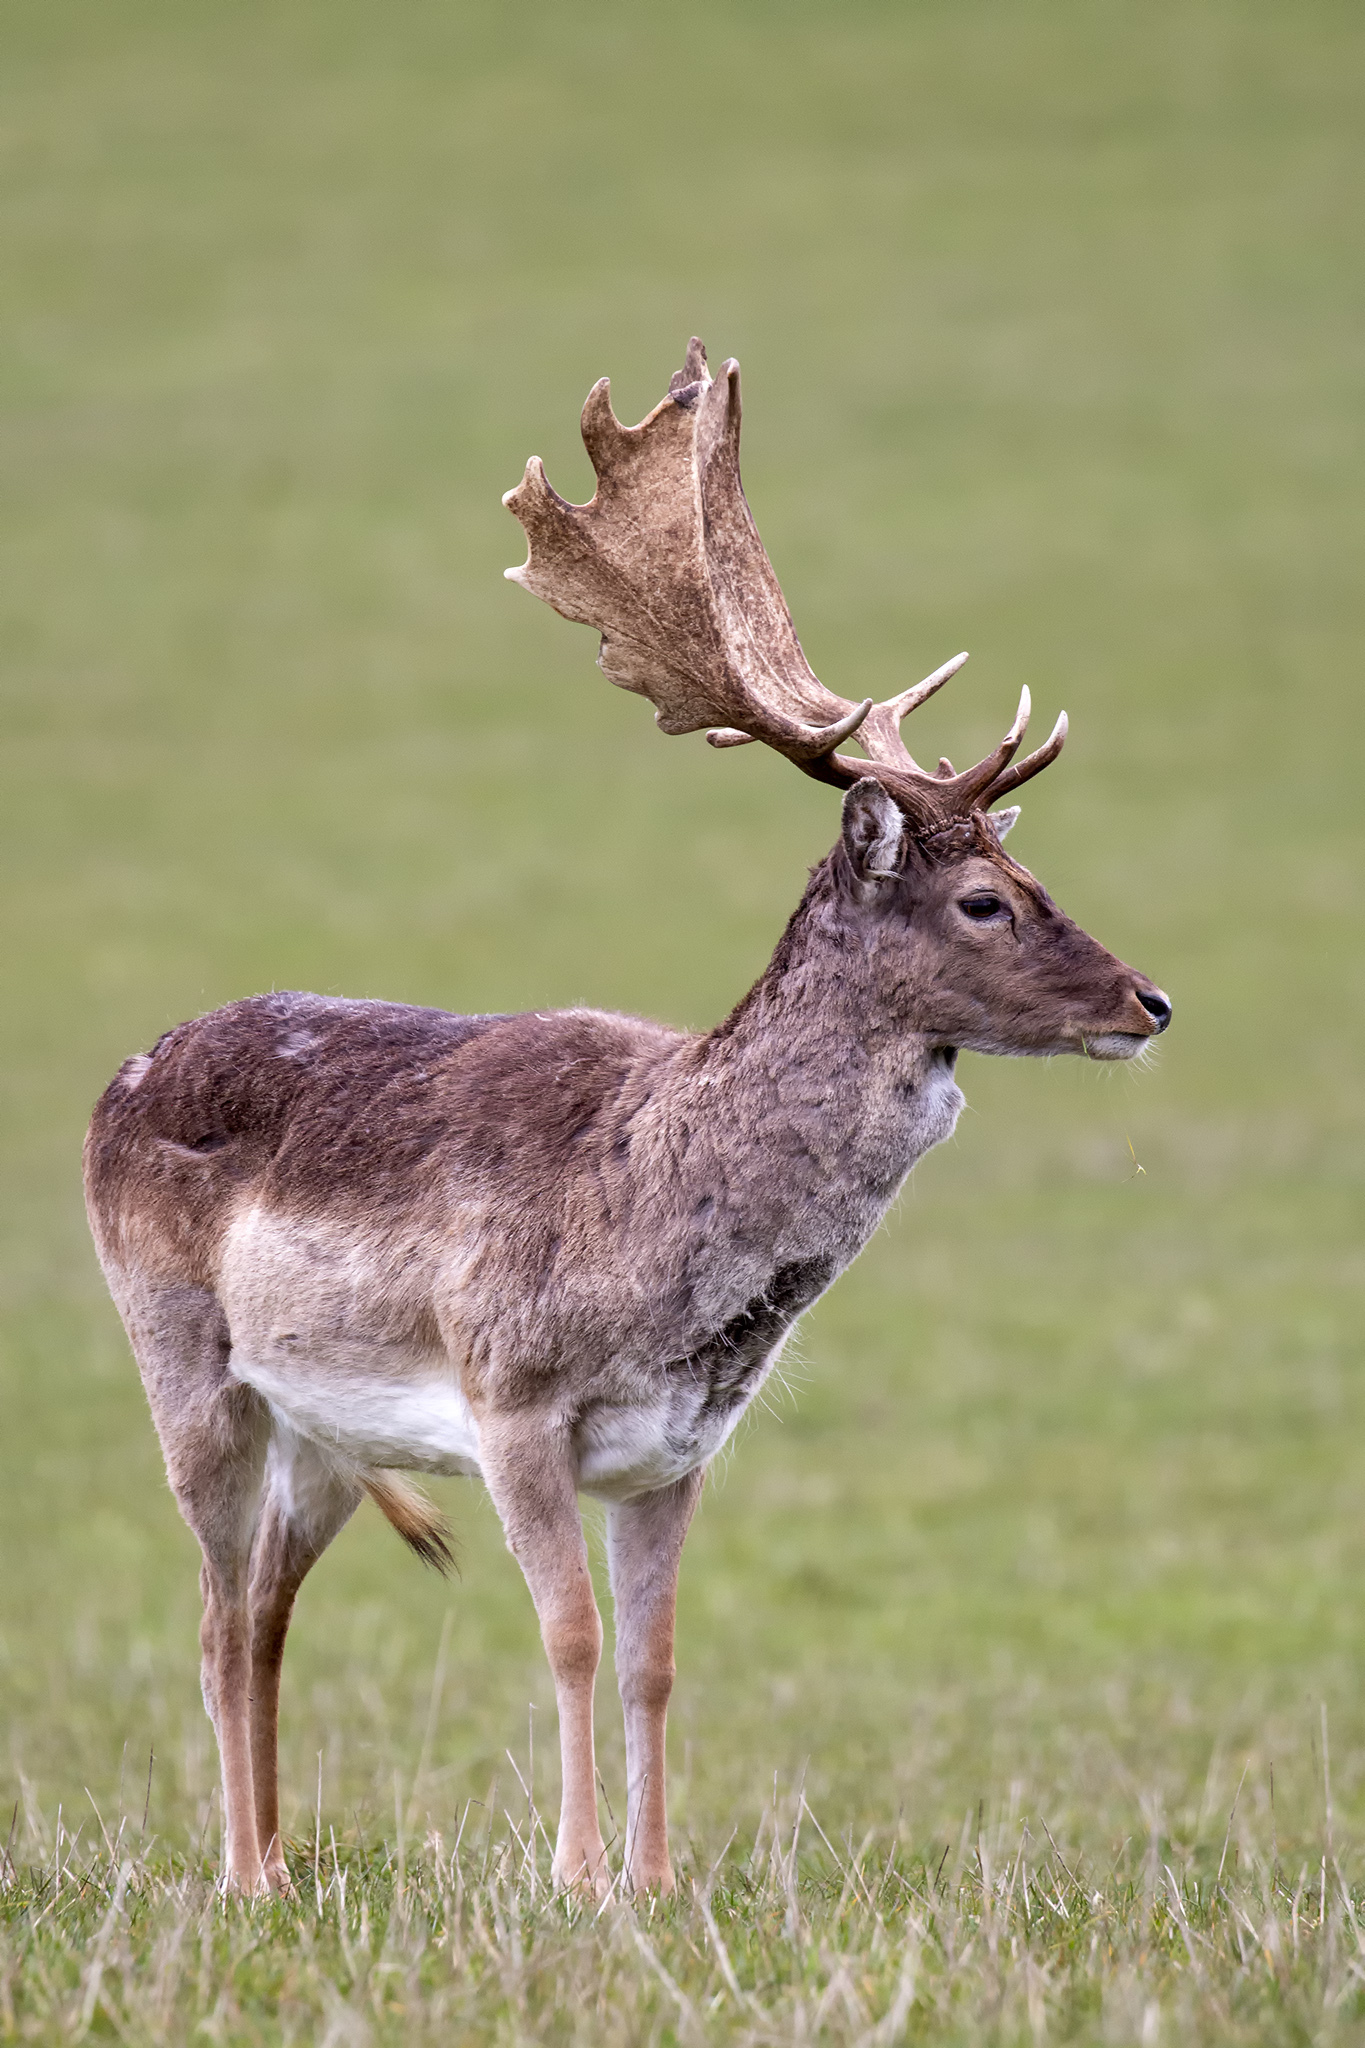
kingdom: Animalia
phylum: Chordata
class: Mammalia
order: Artiodactyla
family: Cervidae
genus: Dama
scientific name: Dama dama
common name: Fallow deer
